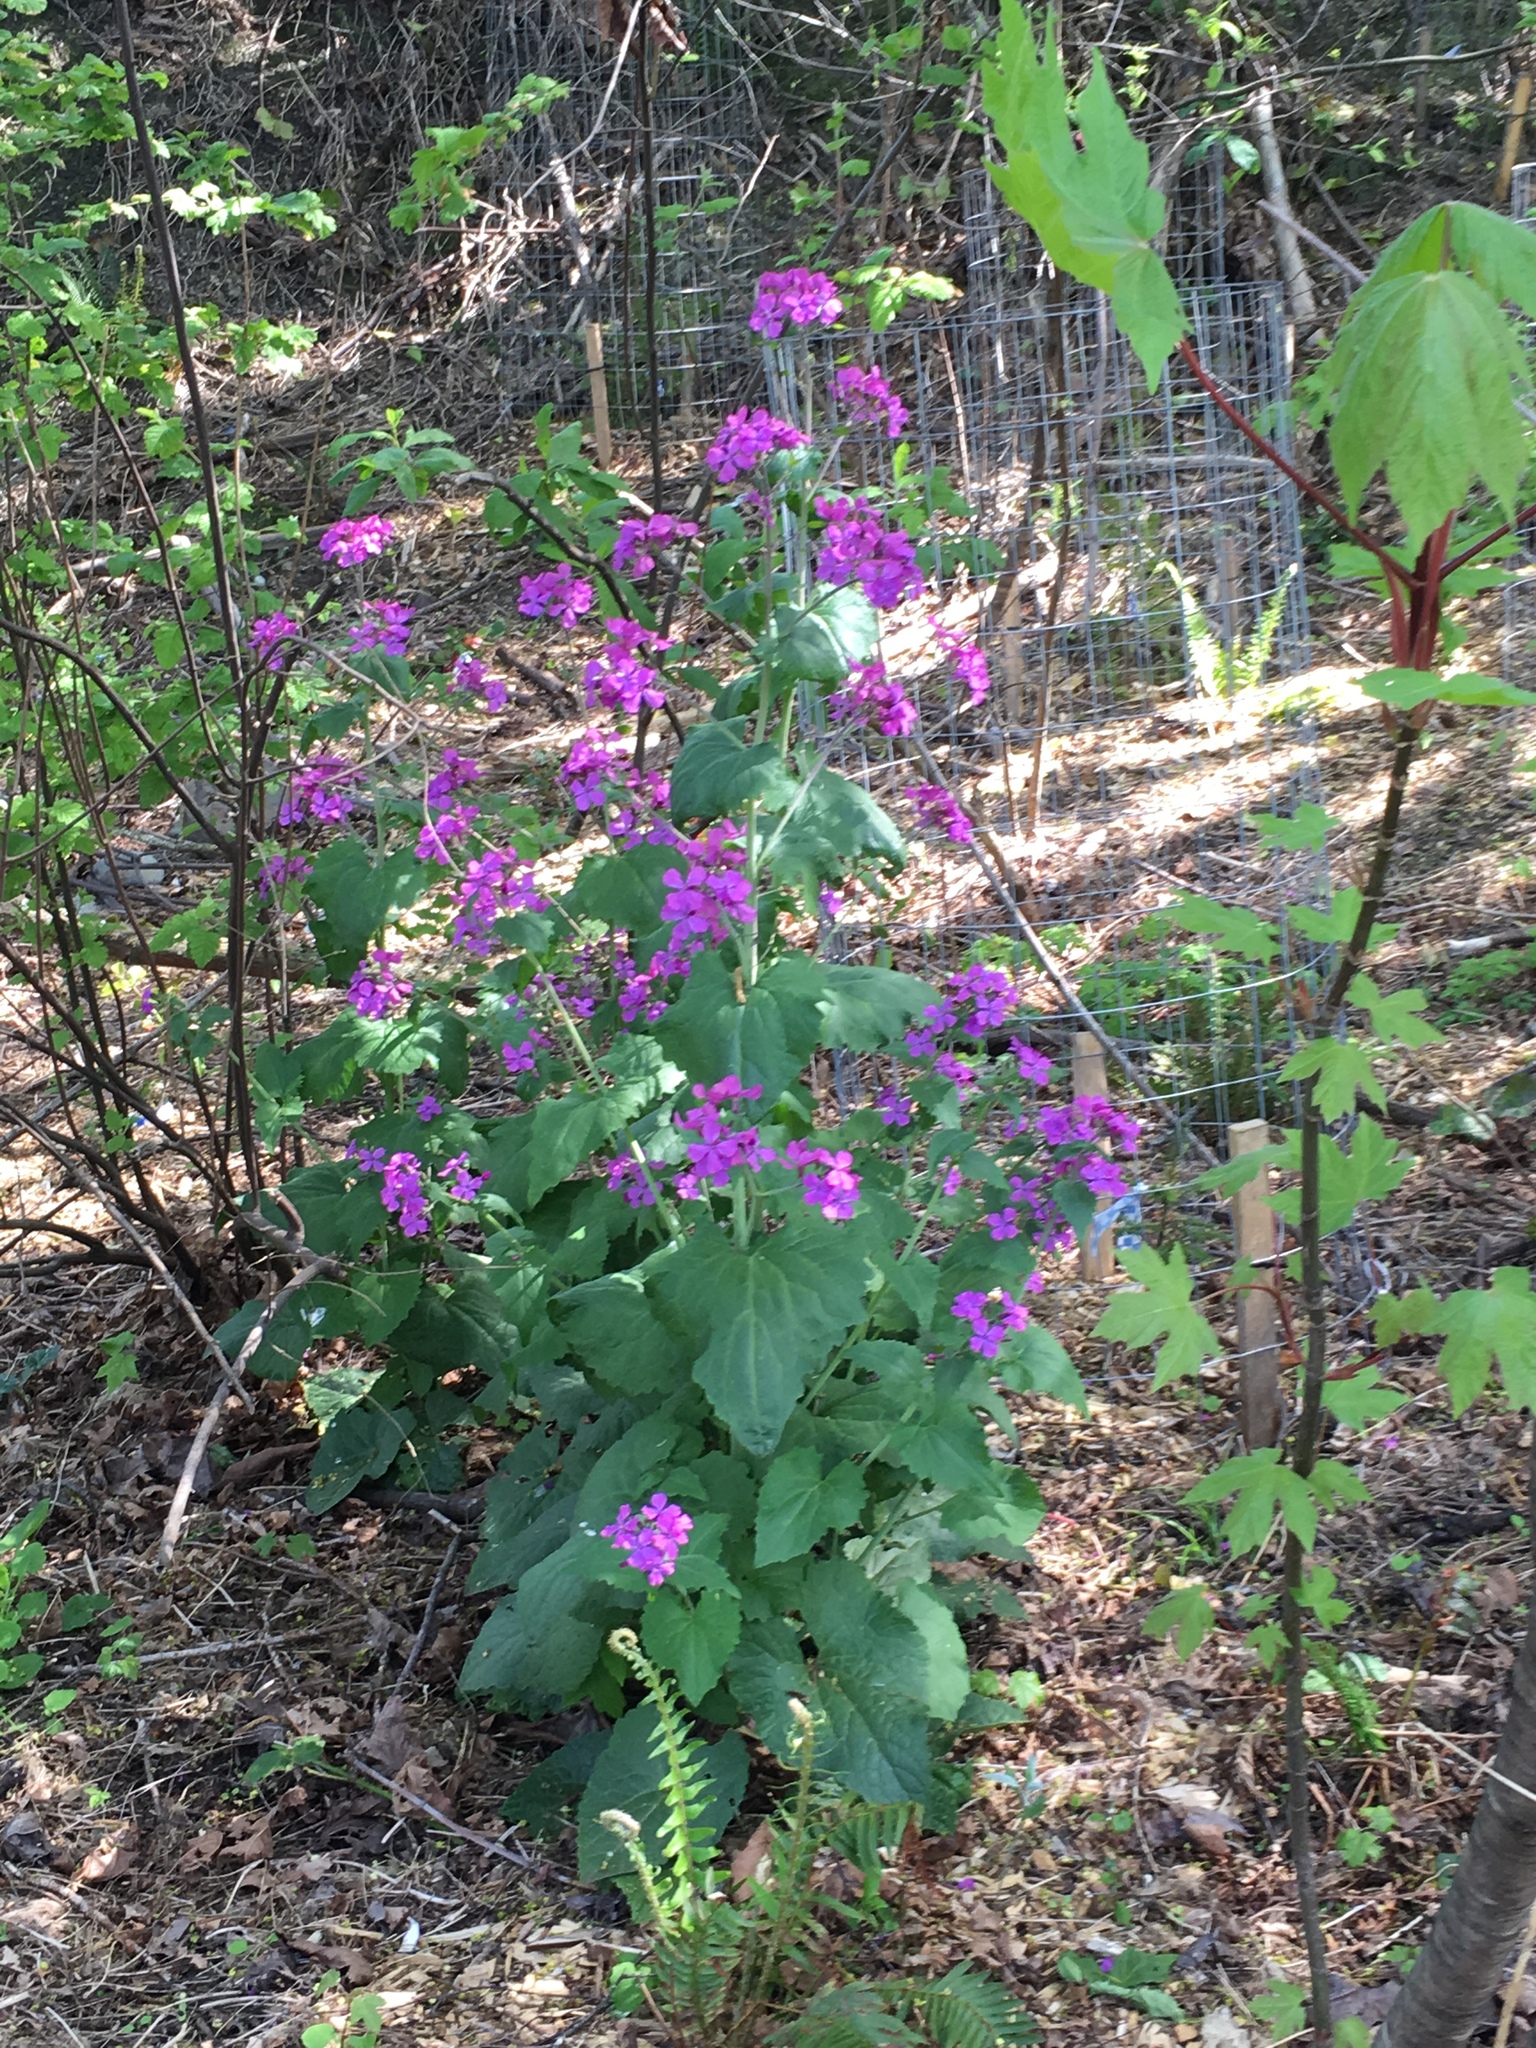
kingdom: Plantae
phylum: Tracheophyta
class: Magnoliopsida
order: Brassicales
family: Brassicaceae
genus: Lunaria
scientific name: Lunaria annua
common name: Honesty
